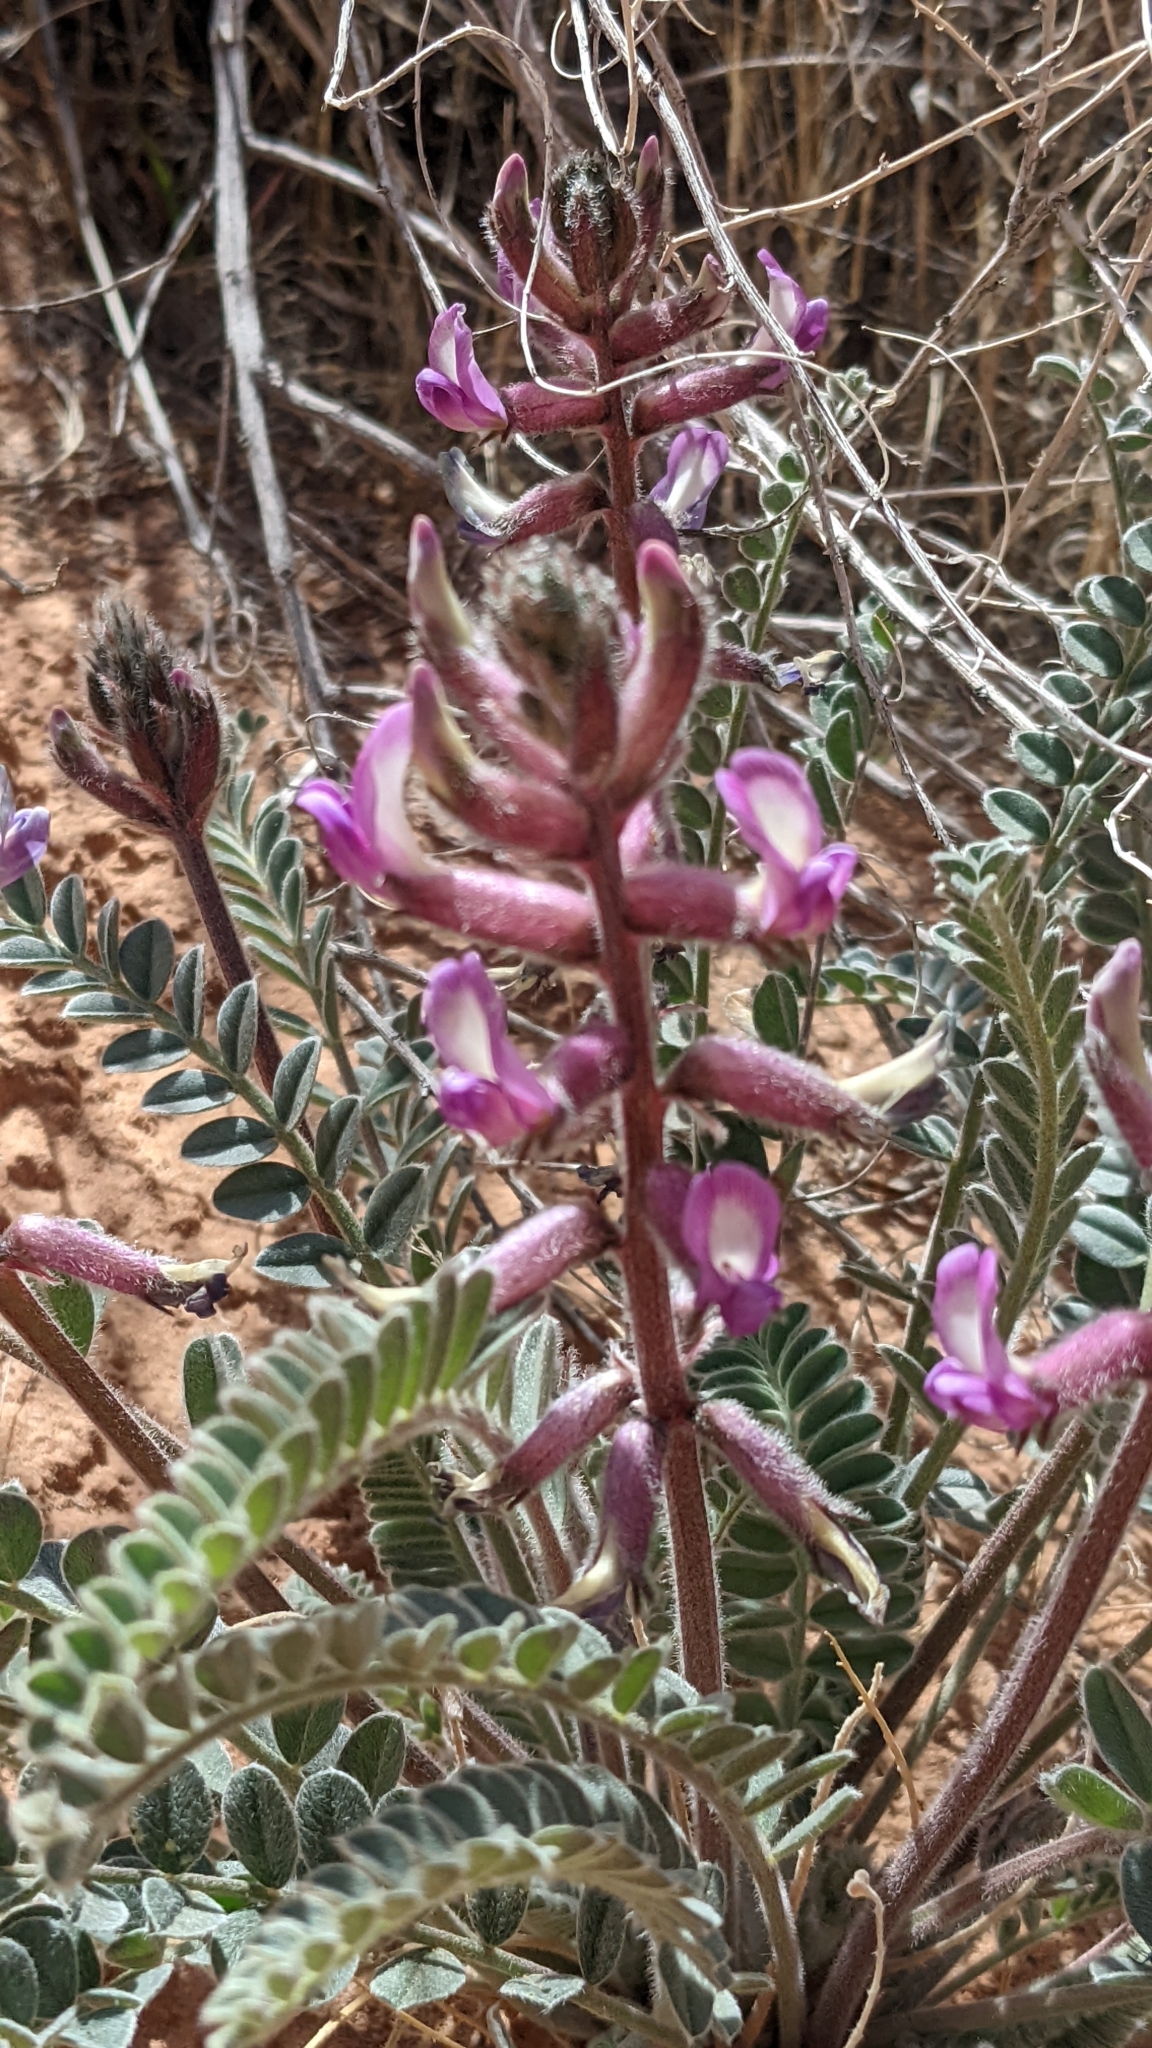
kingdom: Plantae
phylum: Tracheophyta
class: Magnoliopsida
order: Fabales
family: Fabaceae
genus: Astragalus
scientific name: Astragalus mollissimus
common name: Woolly locoweed
